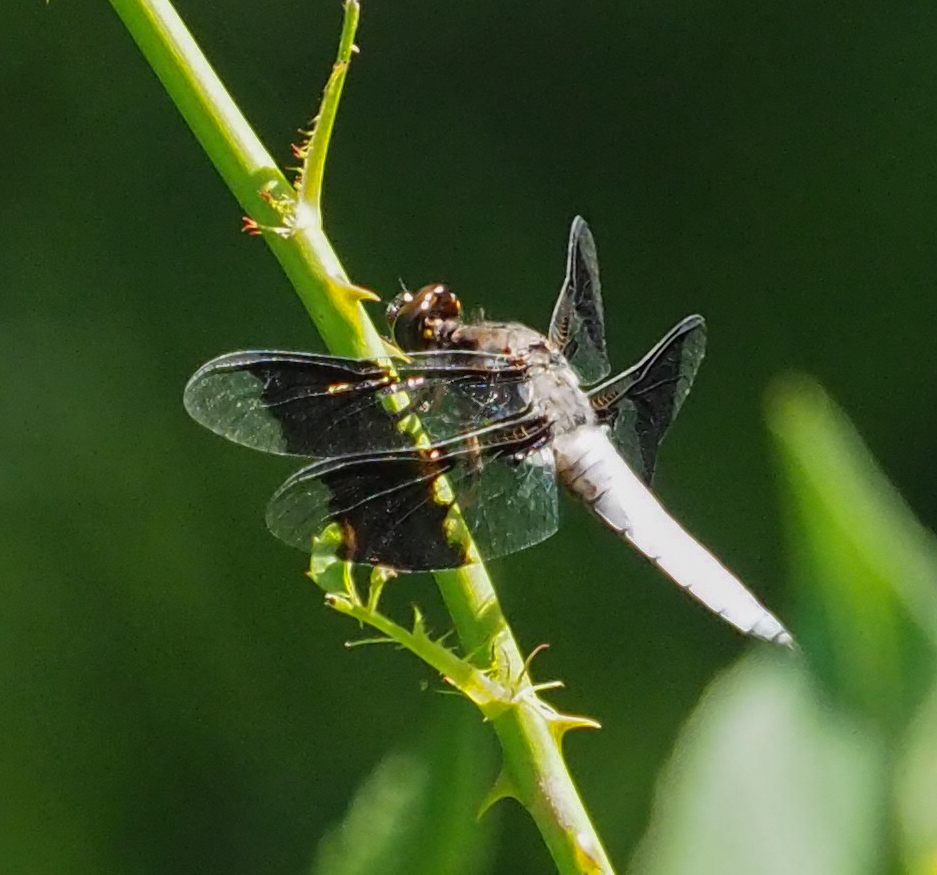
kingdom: Animalia
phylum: Arthropoda
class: Insecta
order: Odonata
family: Libellulidae
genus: Plathemis
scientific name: Plathemis lydia
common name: Common whitetail
